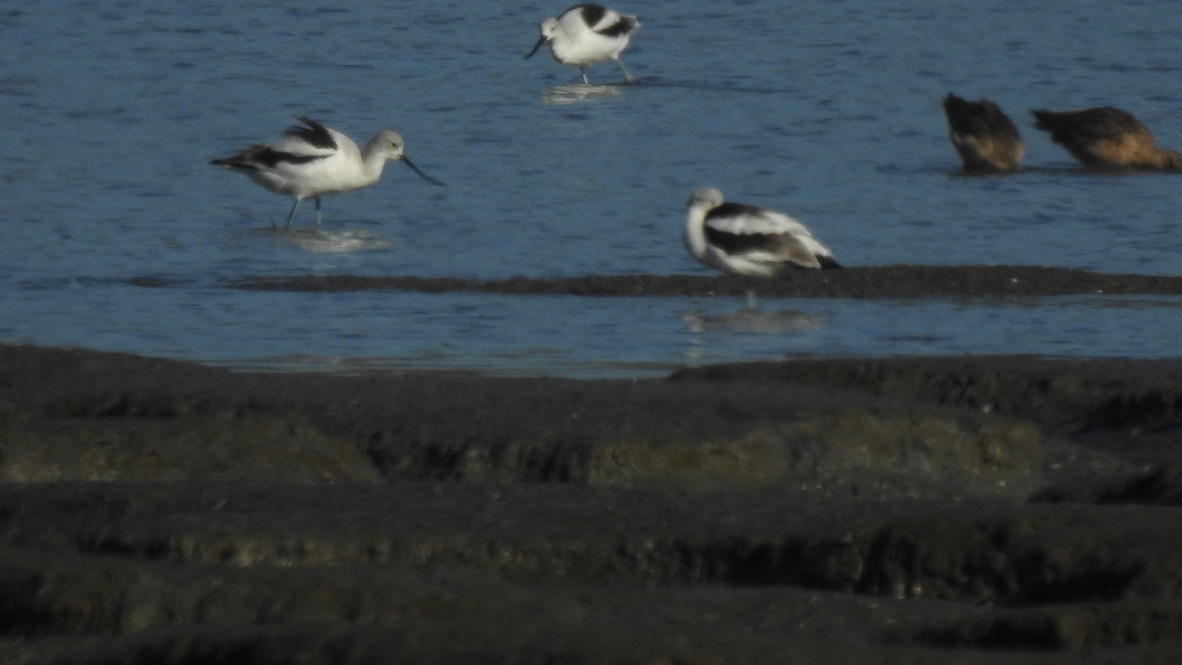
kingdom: Animalia
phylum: Chordata
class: Aves
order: Charadriiformes
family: Recurvirostridae
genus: Recurvirostra
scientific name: Recurvirostra americana
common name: American avocet
